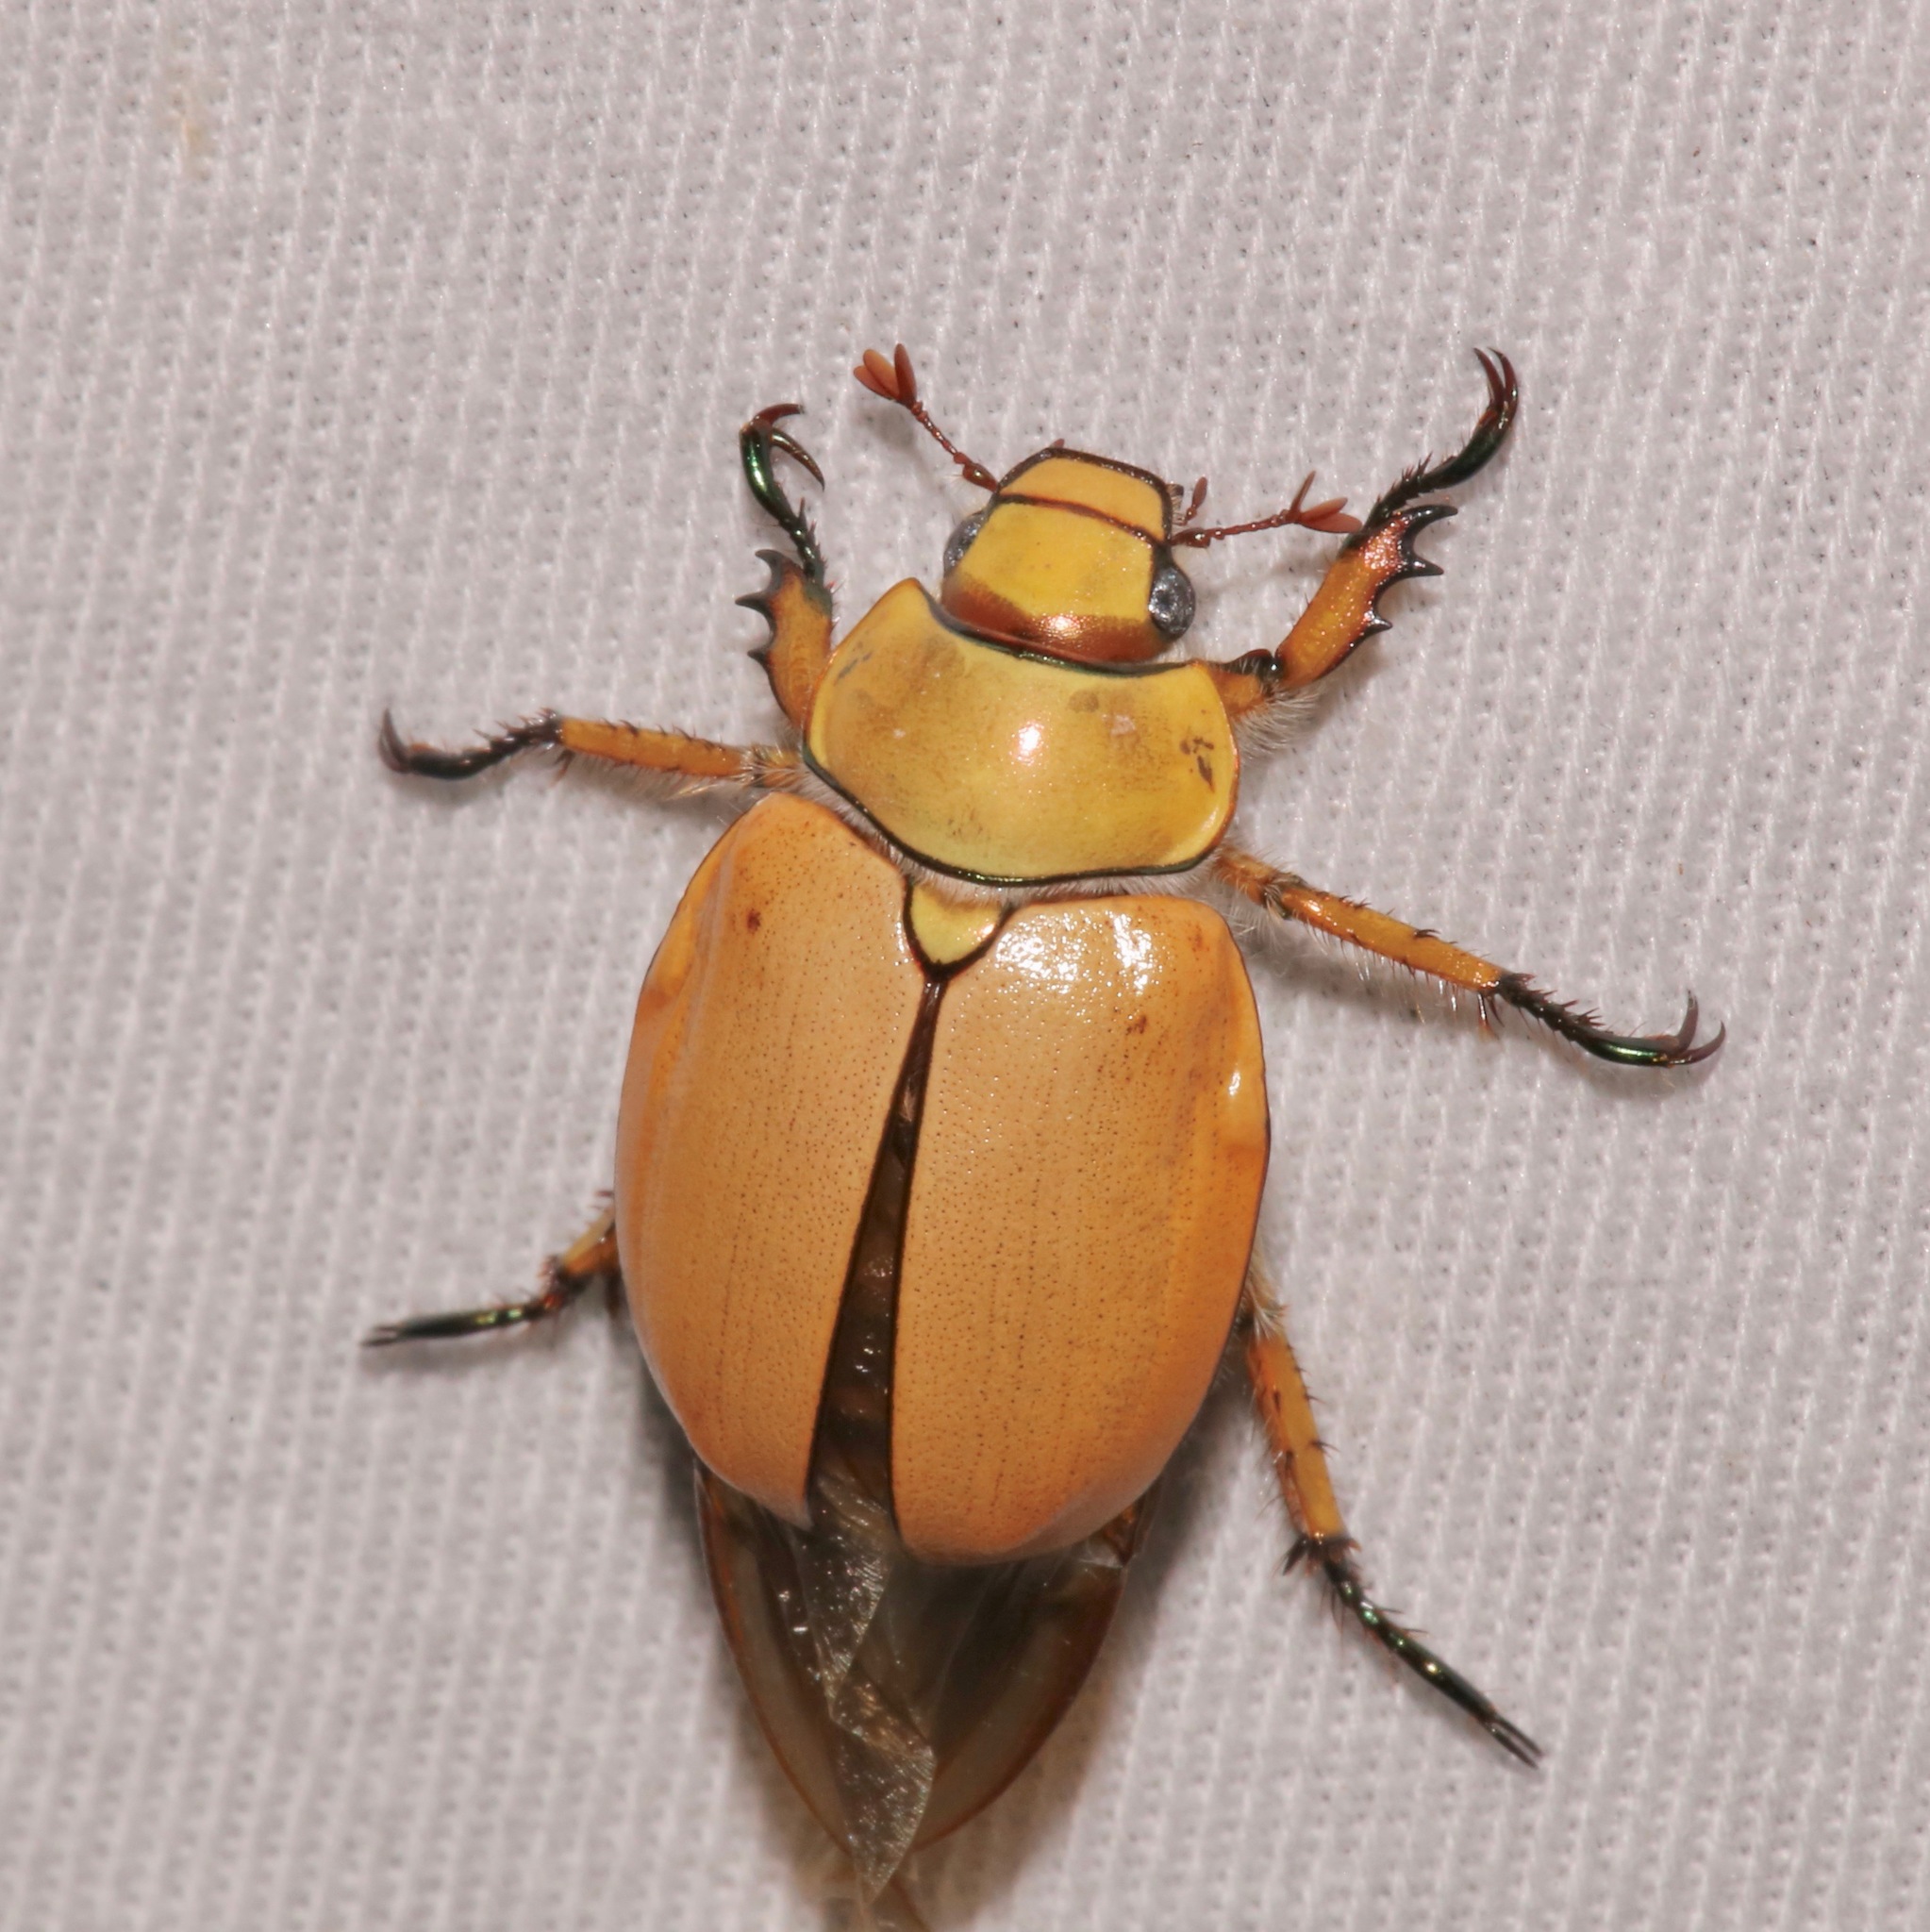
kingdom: Animalia
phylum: Arthropoda
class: Insecta
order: Coleoptera
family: Scarabaeidae
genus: Cotalpa
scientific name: Cotalpa consobrina
